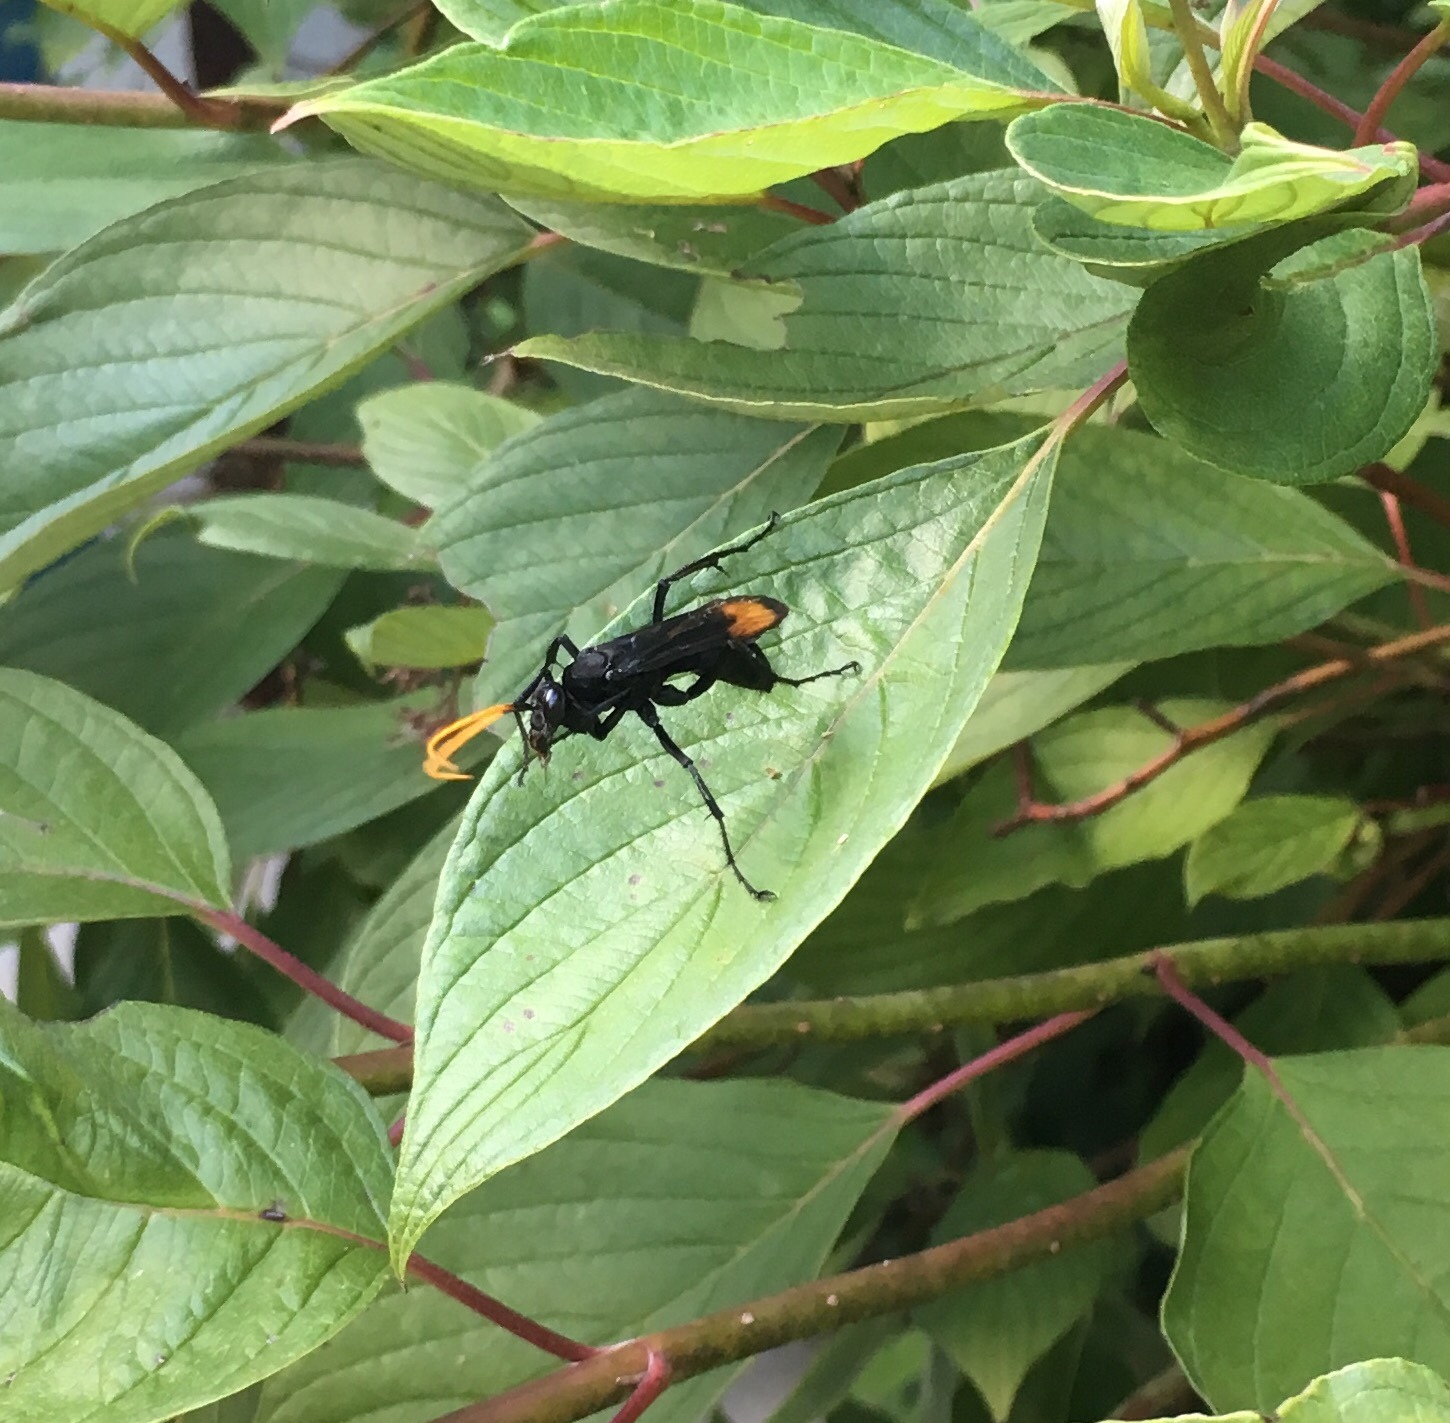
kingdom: Animalia
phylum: Arthropoda
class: Insecta
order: Hymenoptera
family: Pompilidae
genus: Entypus
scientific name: Entypus unifasciatus
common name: Eastern tawny-horned spider wasp
